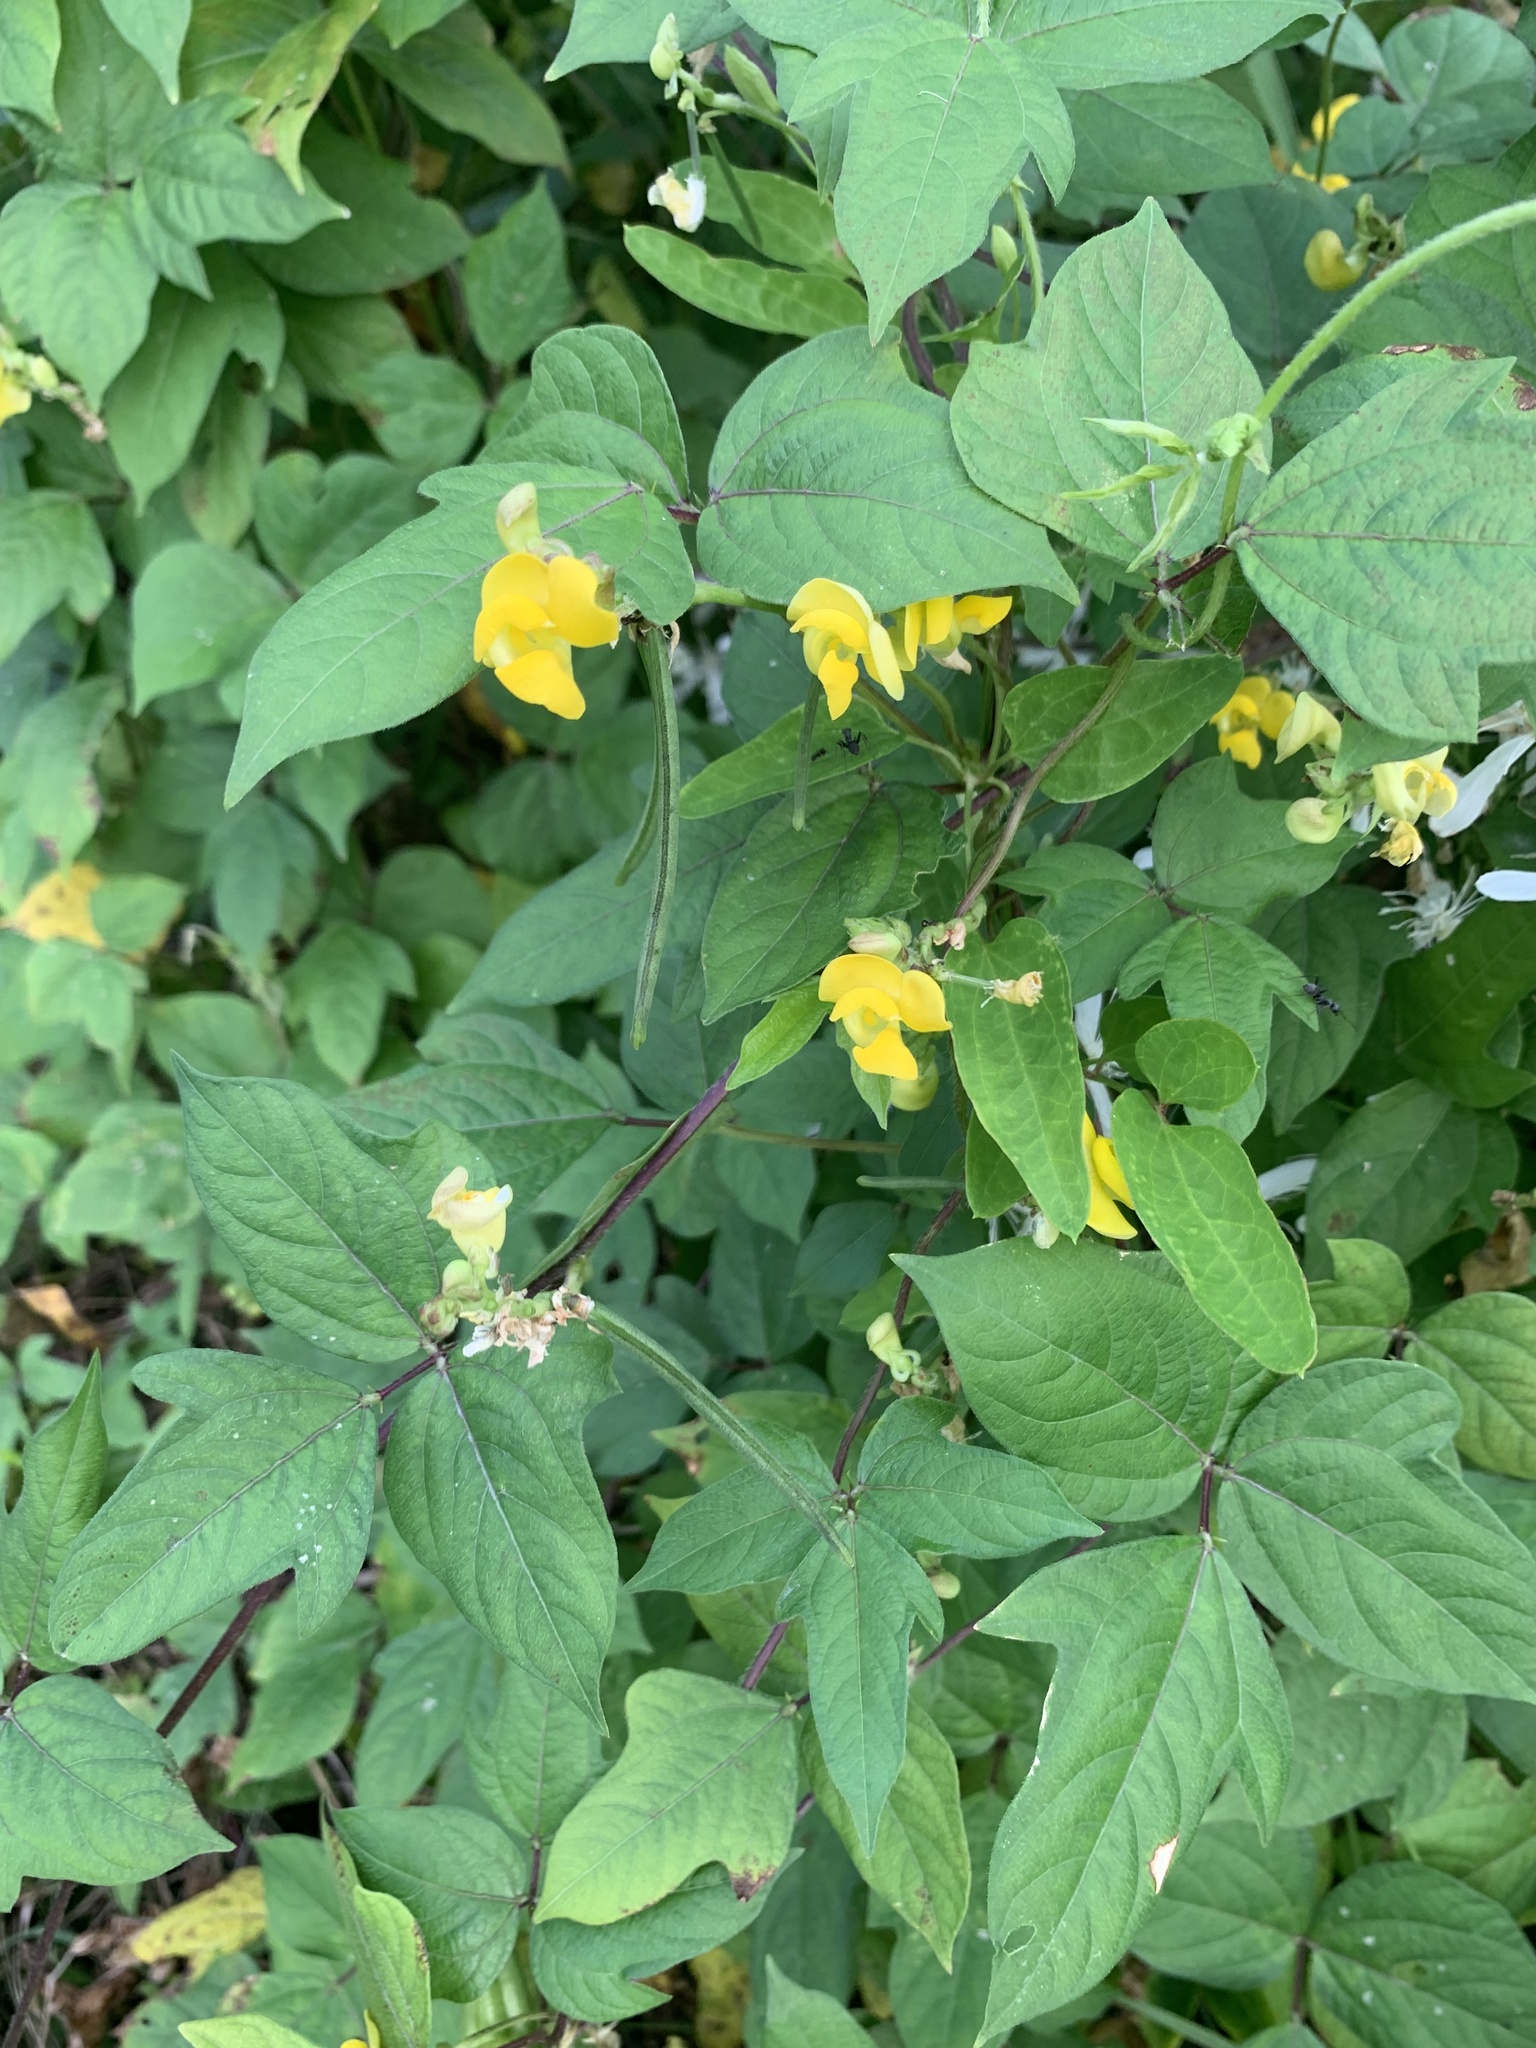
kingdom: Plantae
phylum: Tracheophyta
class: Magnoliopsida
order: Fabales
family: Fabaceae
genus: Vigna
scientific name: Vigna angularis
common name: Adzuki bean
